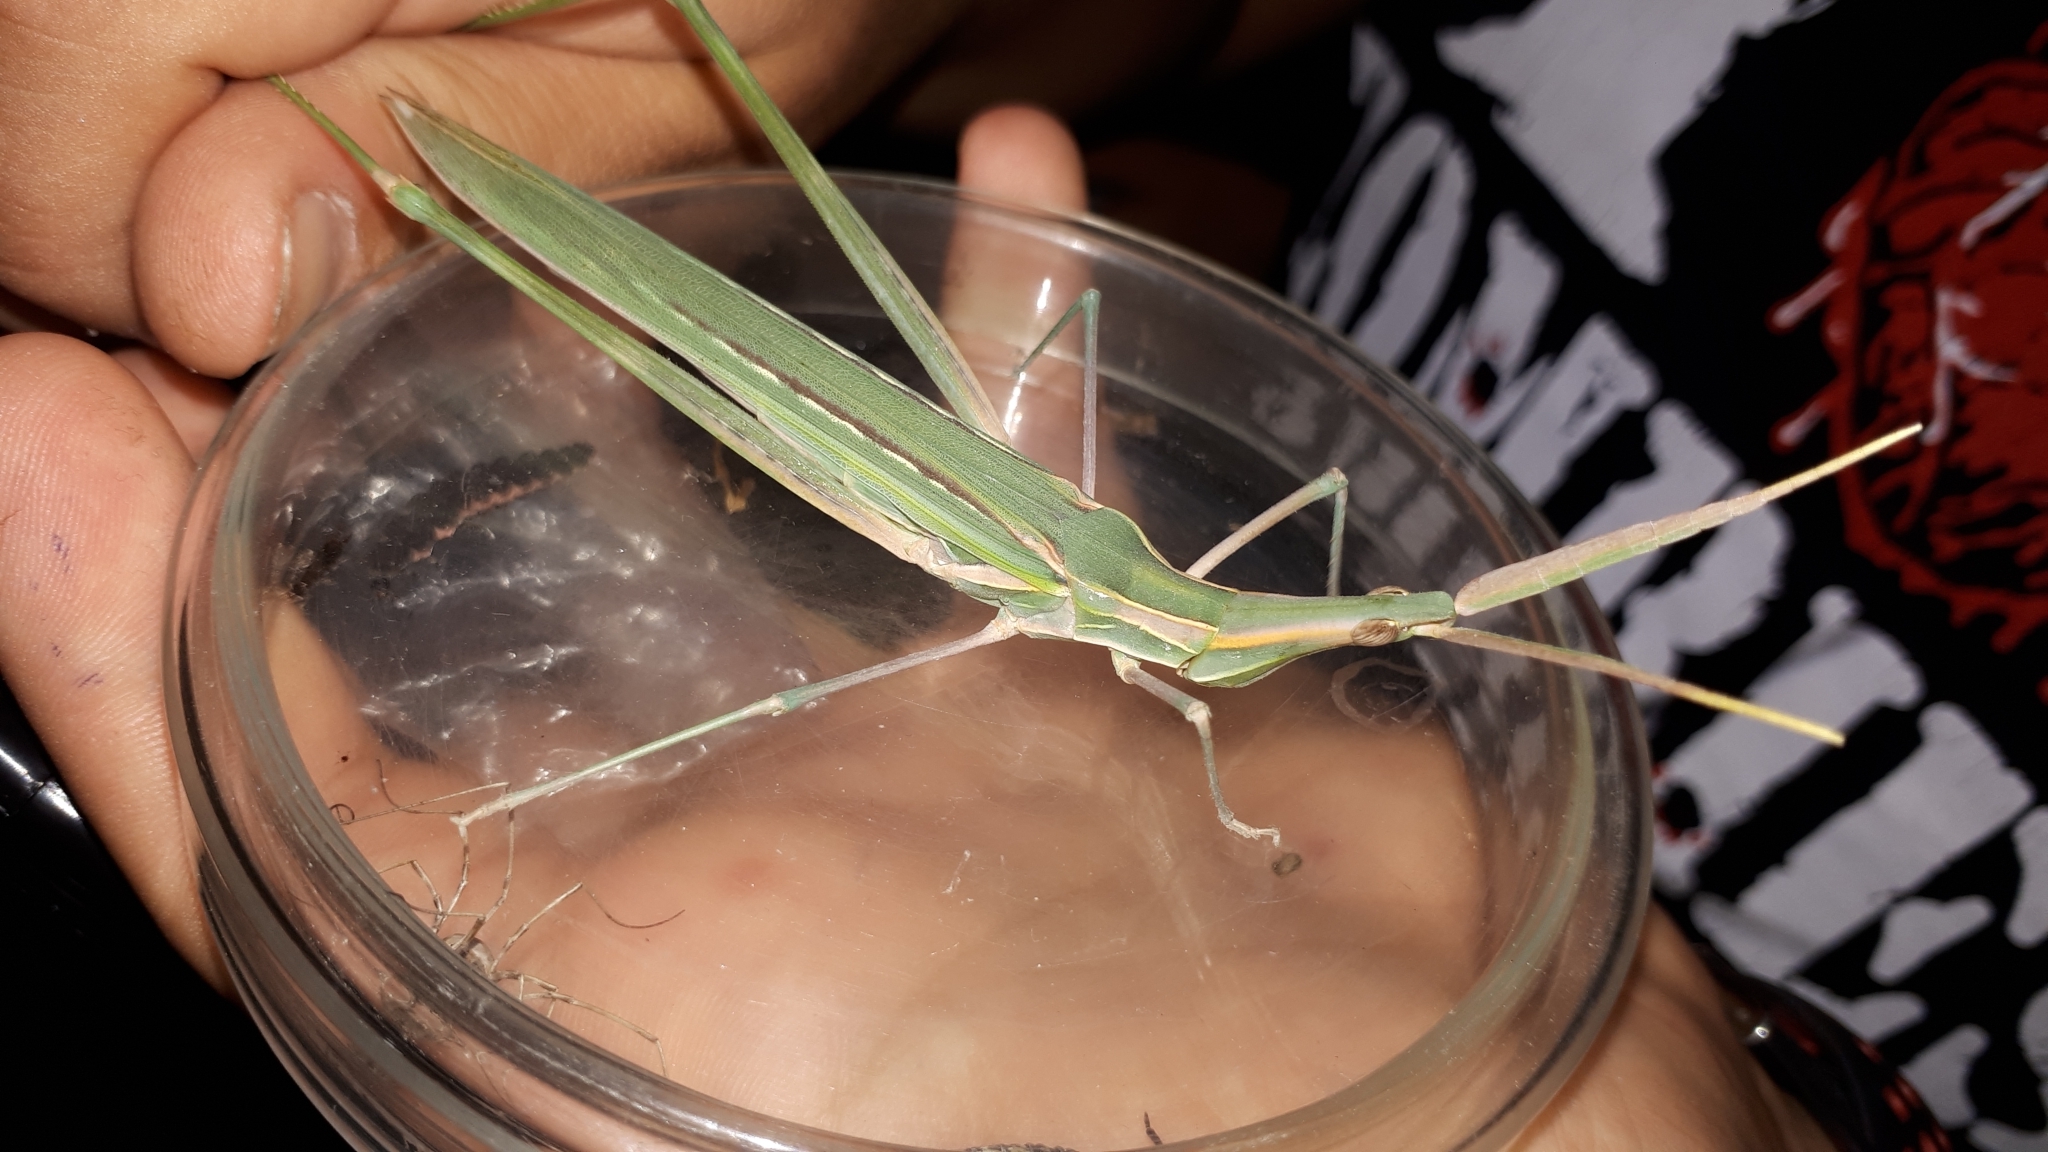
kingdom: Animalia
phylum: Arthropoda
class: Insecta
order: Orthoptera
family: Acrididae
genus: Truxalis
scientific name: Truxalis nasuta
